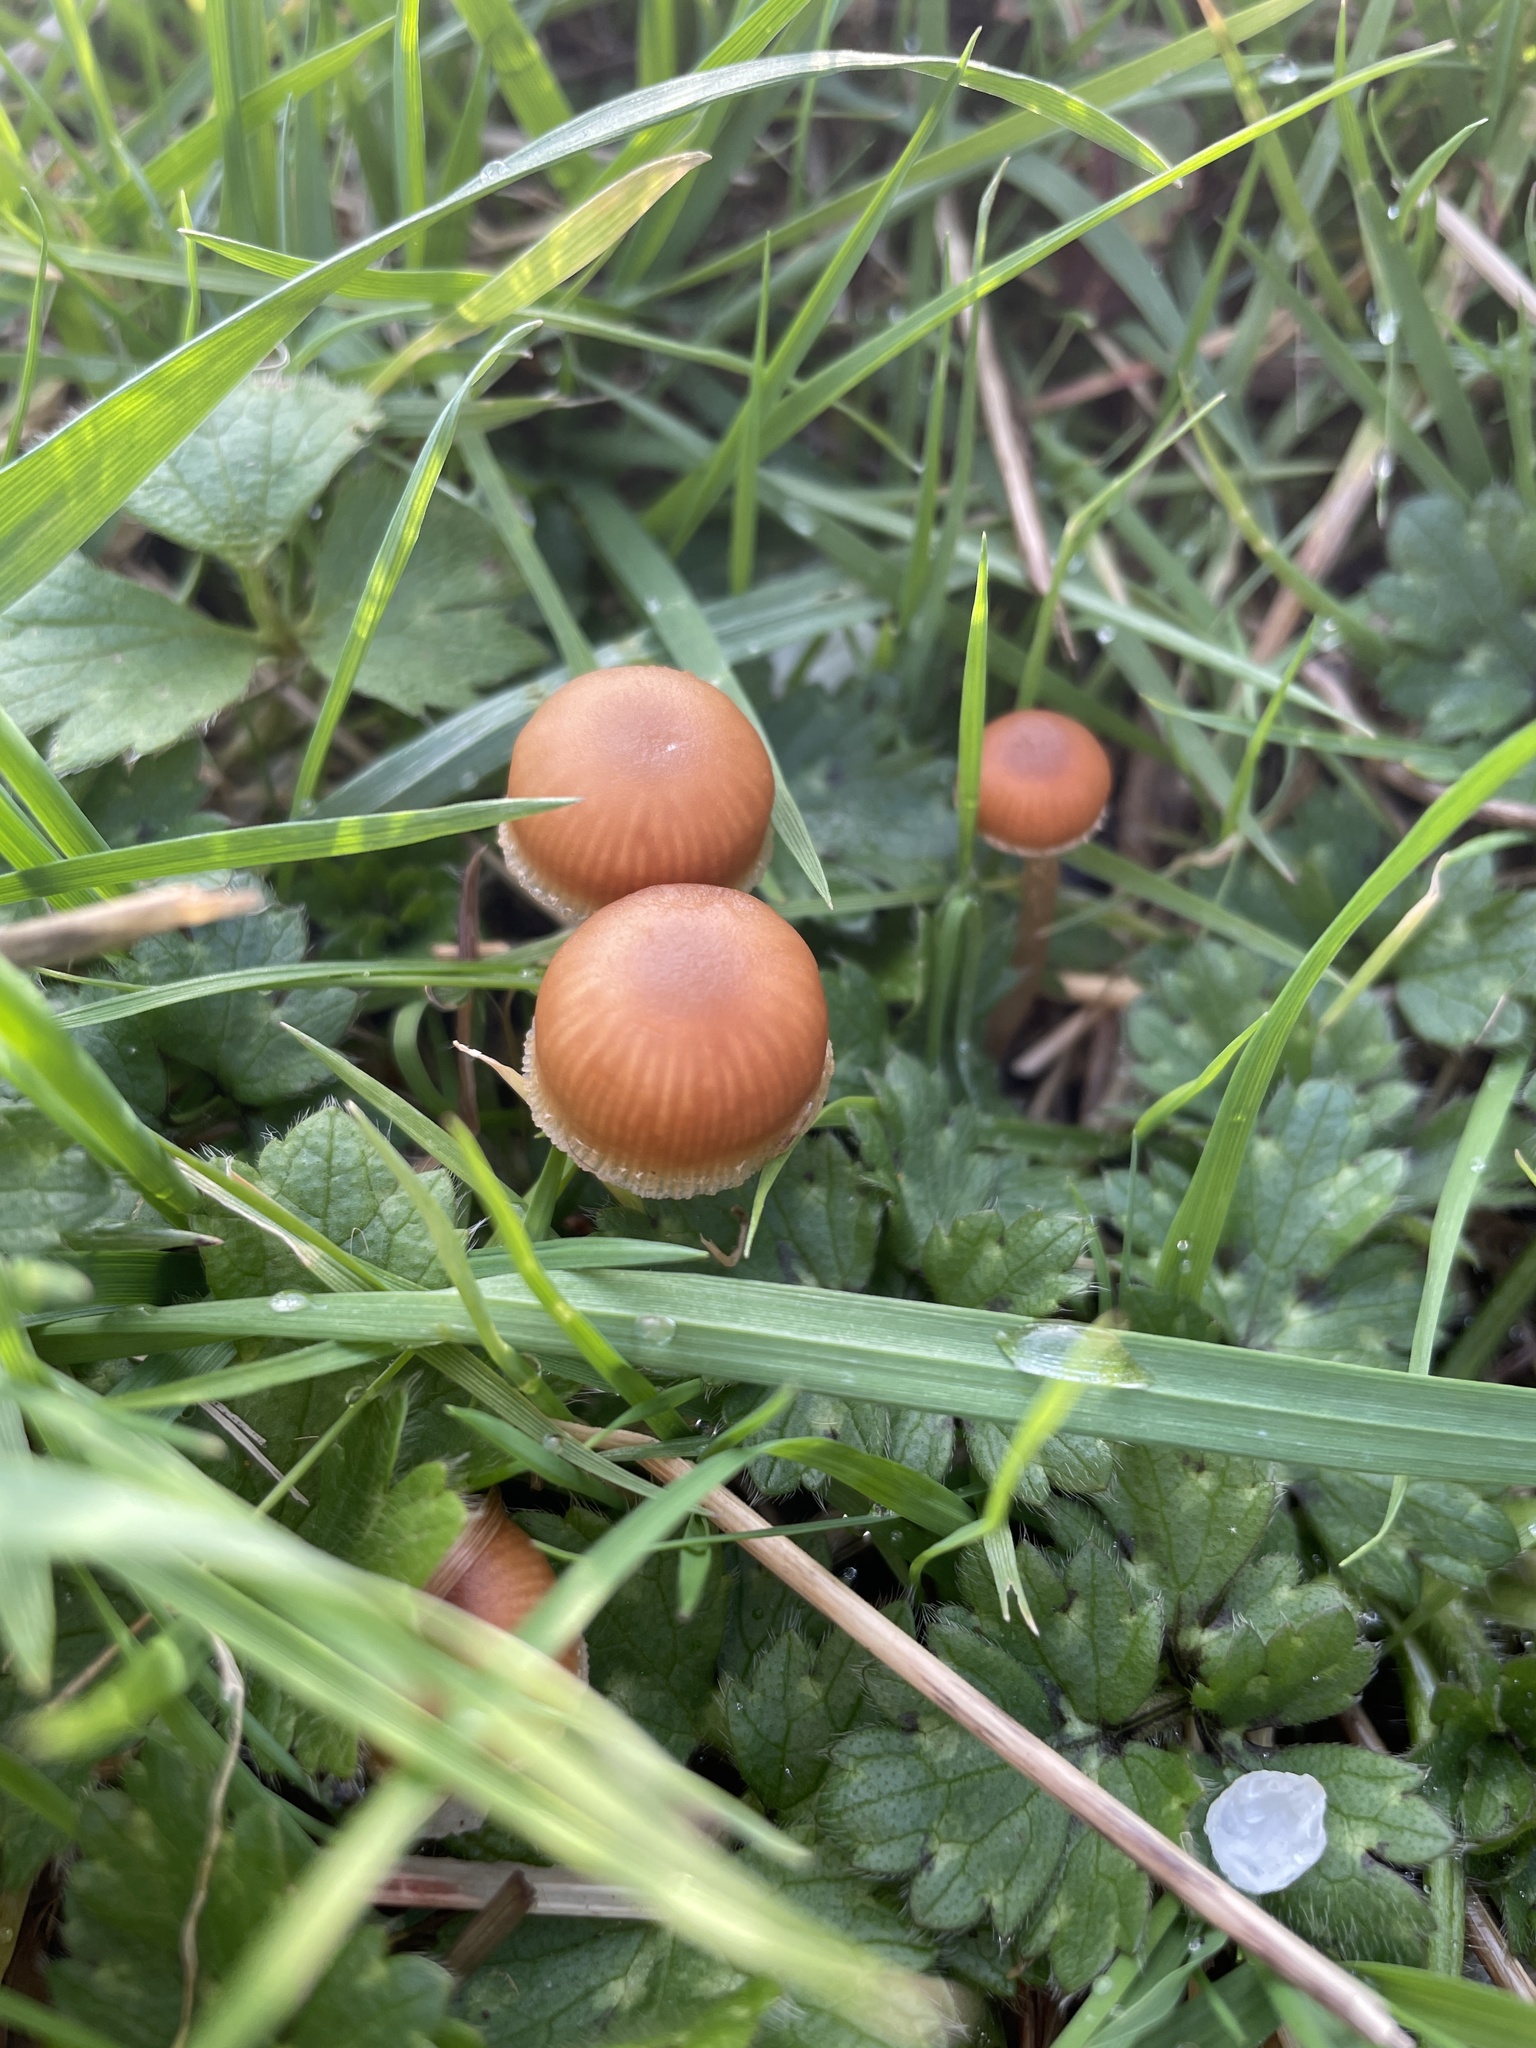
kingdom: Fungi
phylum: Basidiomycota
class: Agaricomycetes
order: Agaricales
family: Tubariaceae
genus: Tubaria
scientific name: Tubaria furfuracea
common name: Scurfy twiglet
